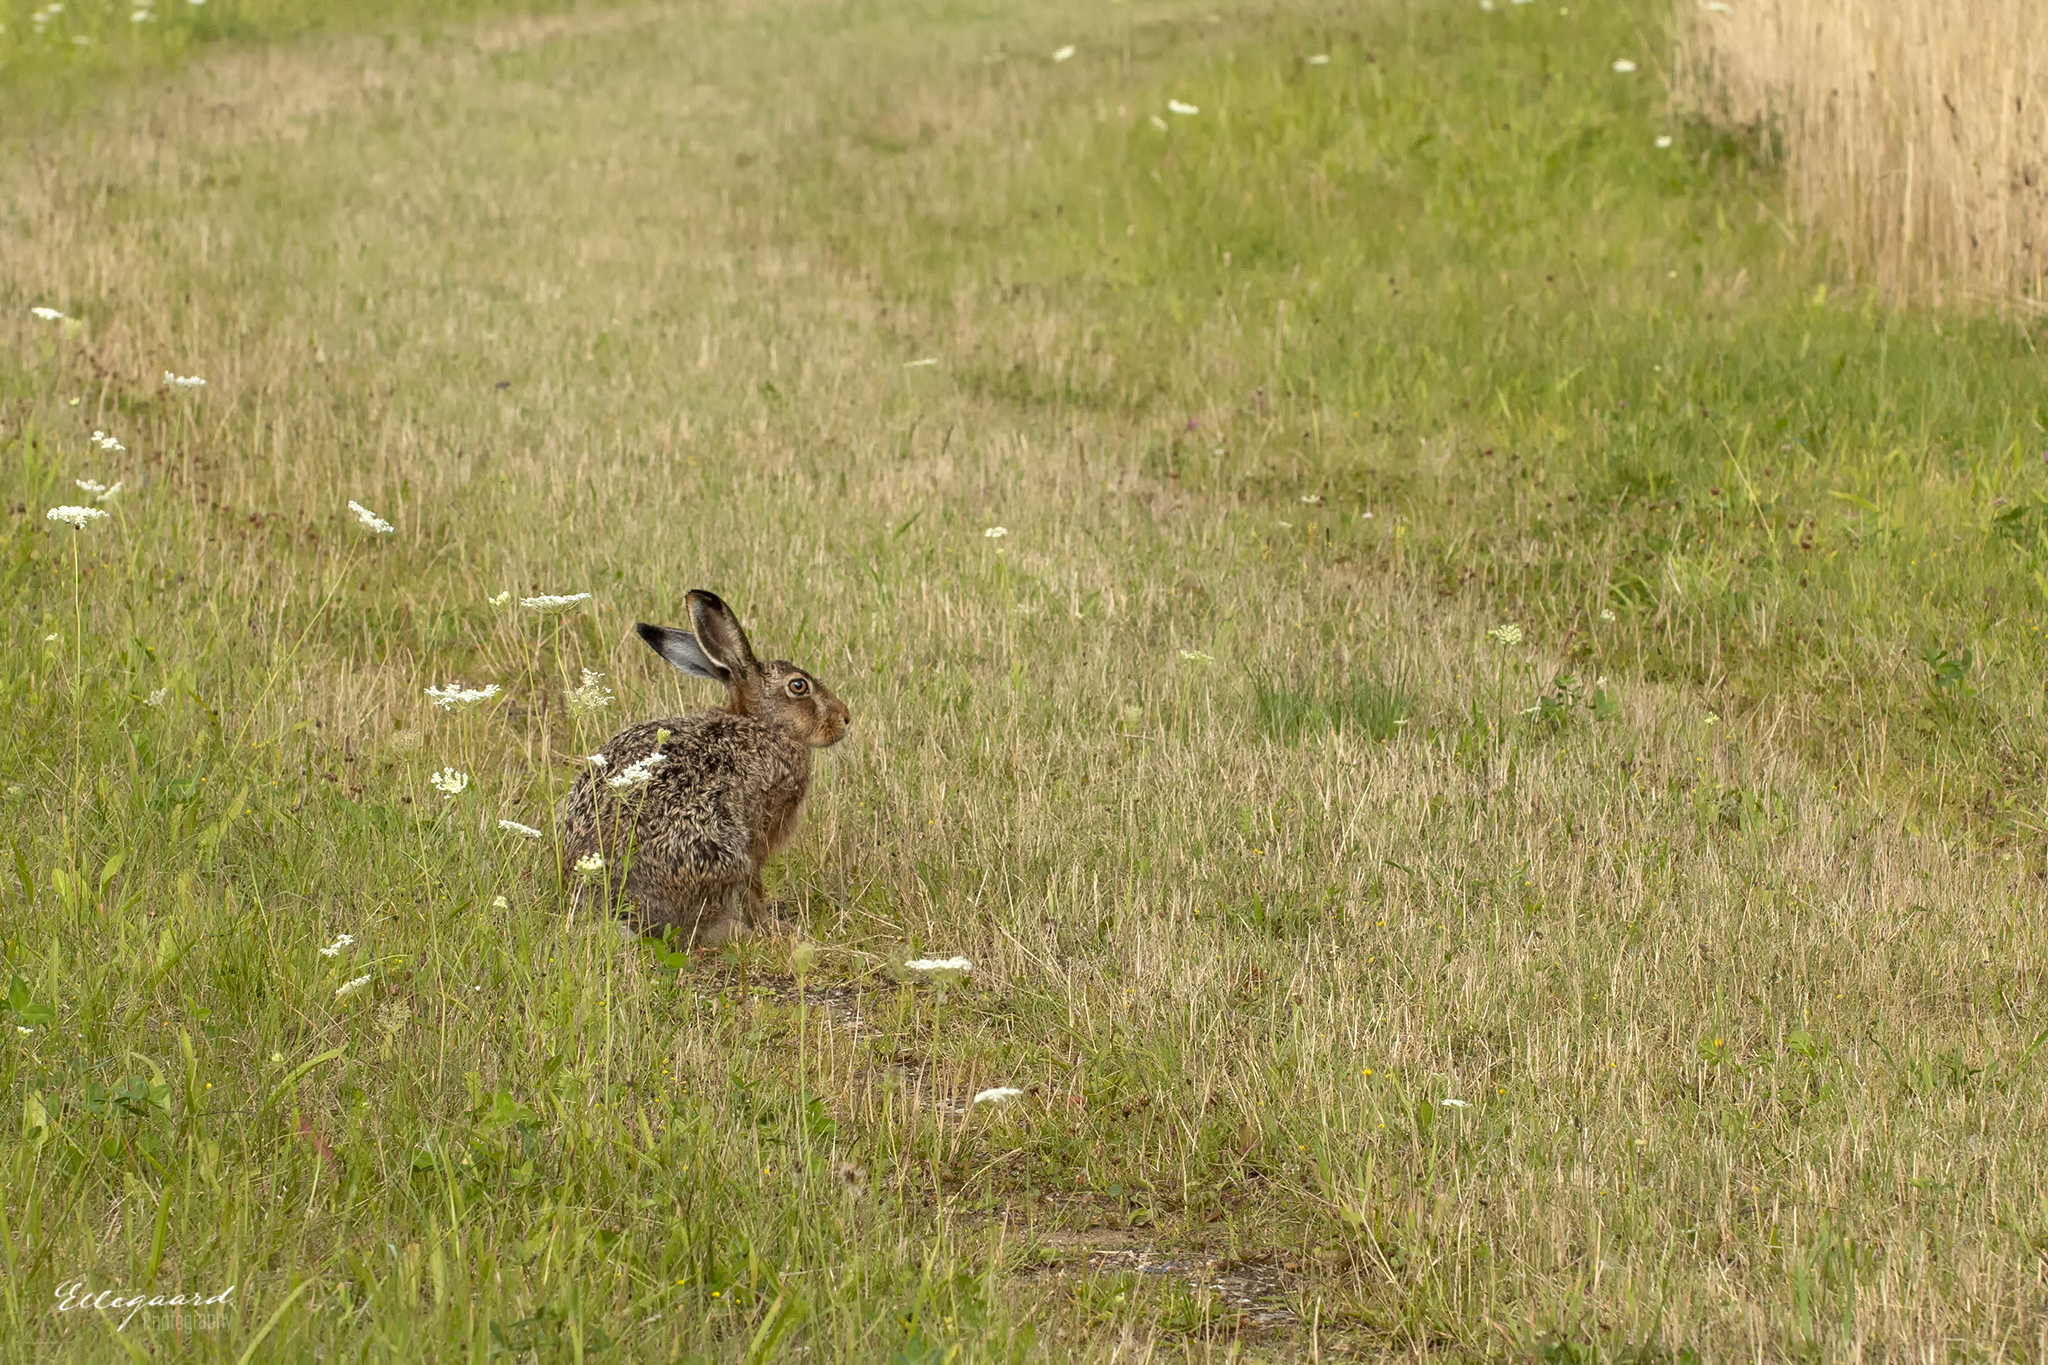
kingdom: Animalia
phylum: Chordata
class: Mammalia
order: Lagomorpha
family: Leporidae
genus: Lepus
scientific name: Lepus europaeus
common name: European hare
